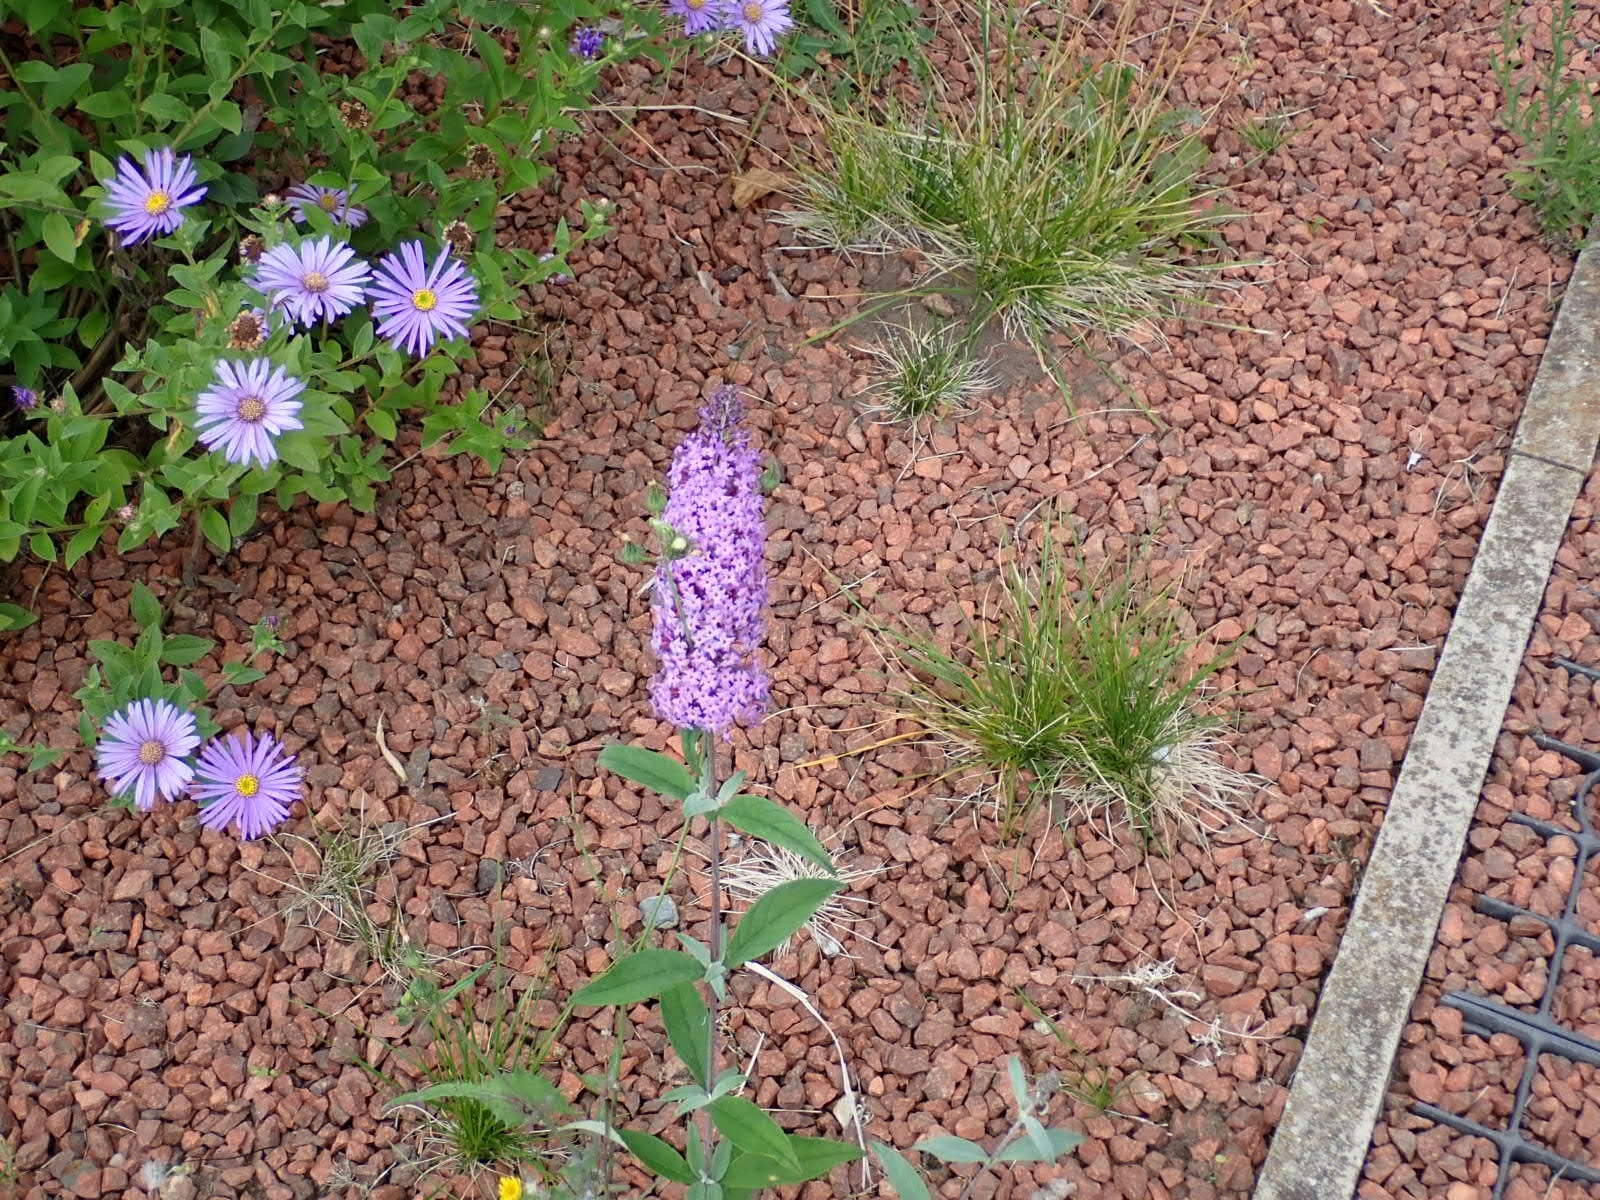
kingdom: Plantae
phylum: Tracheophyta
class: Magnoliopsida
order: Lamiales
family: Scrophulariaceae
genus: Buddleja
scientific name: Buddleja davidii
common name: Butterfly-bush
